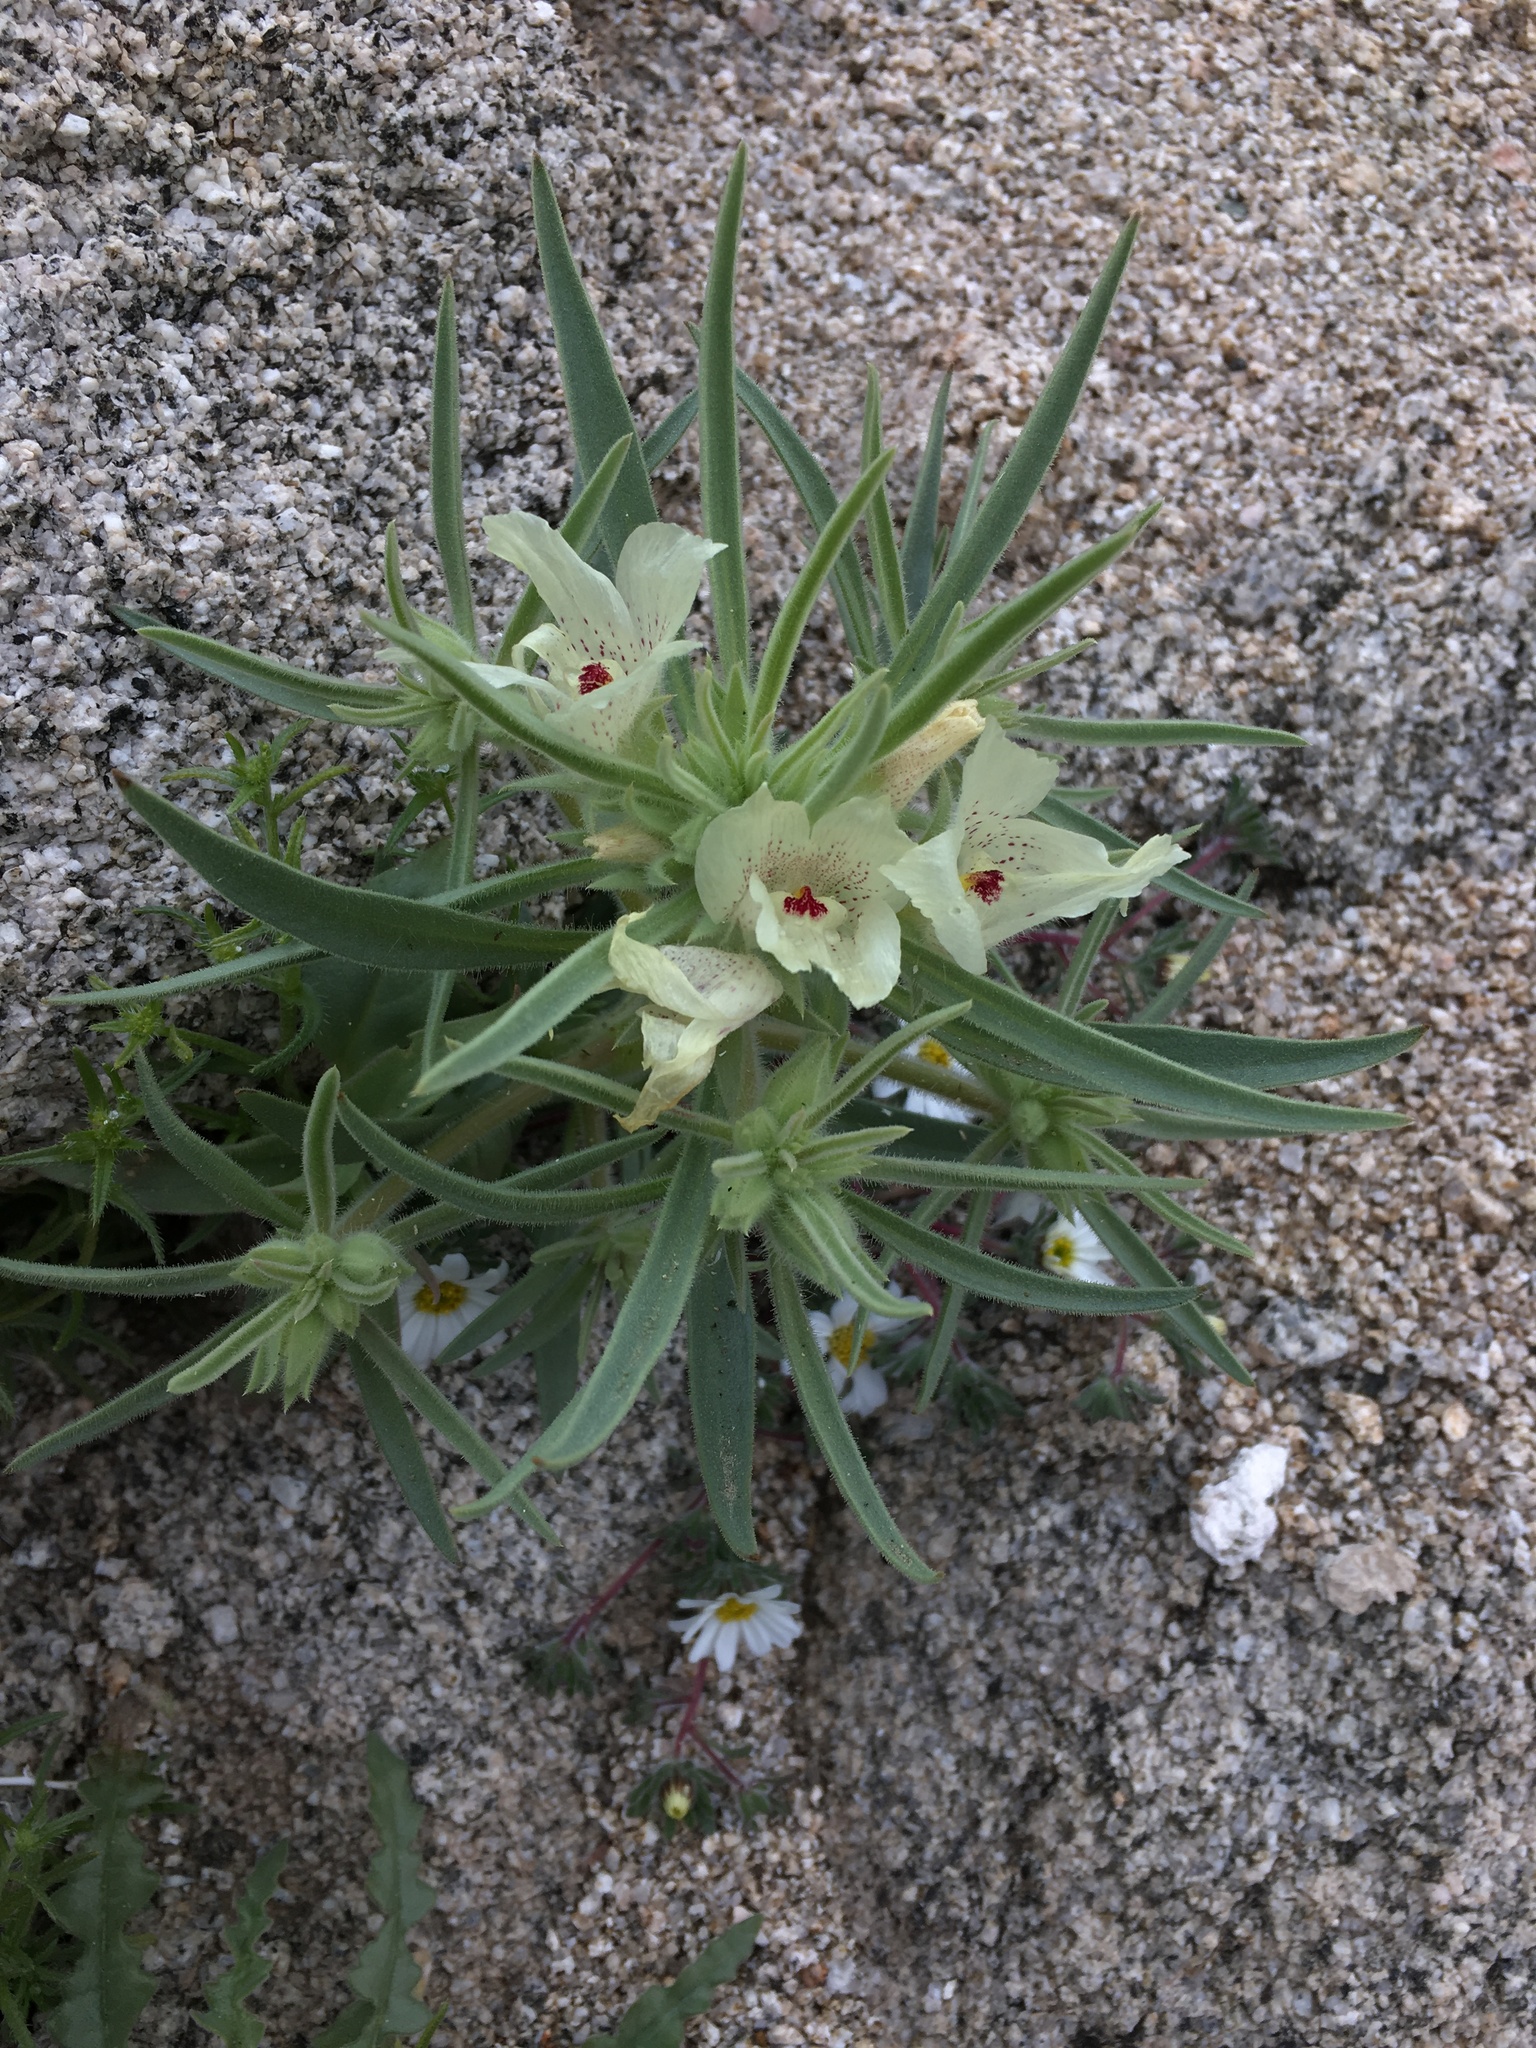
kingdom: Plantae
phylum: Tracheophyta
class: Magnoliopsida
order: Lamiales
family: Plantaginaceae
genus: Mohavea
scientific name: Mohavea confertiflora
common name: Ghost flower
